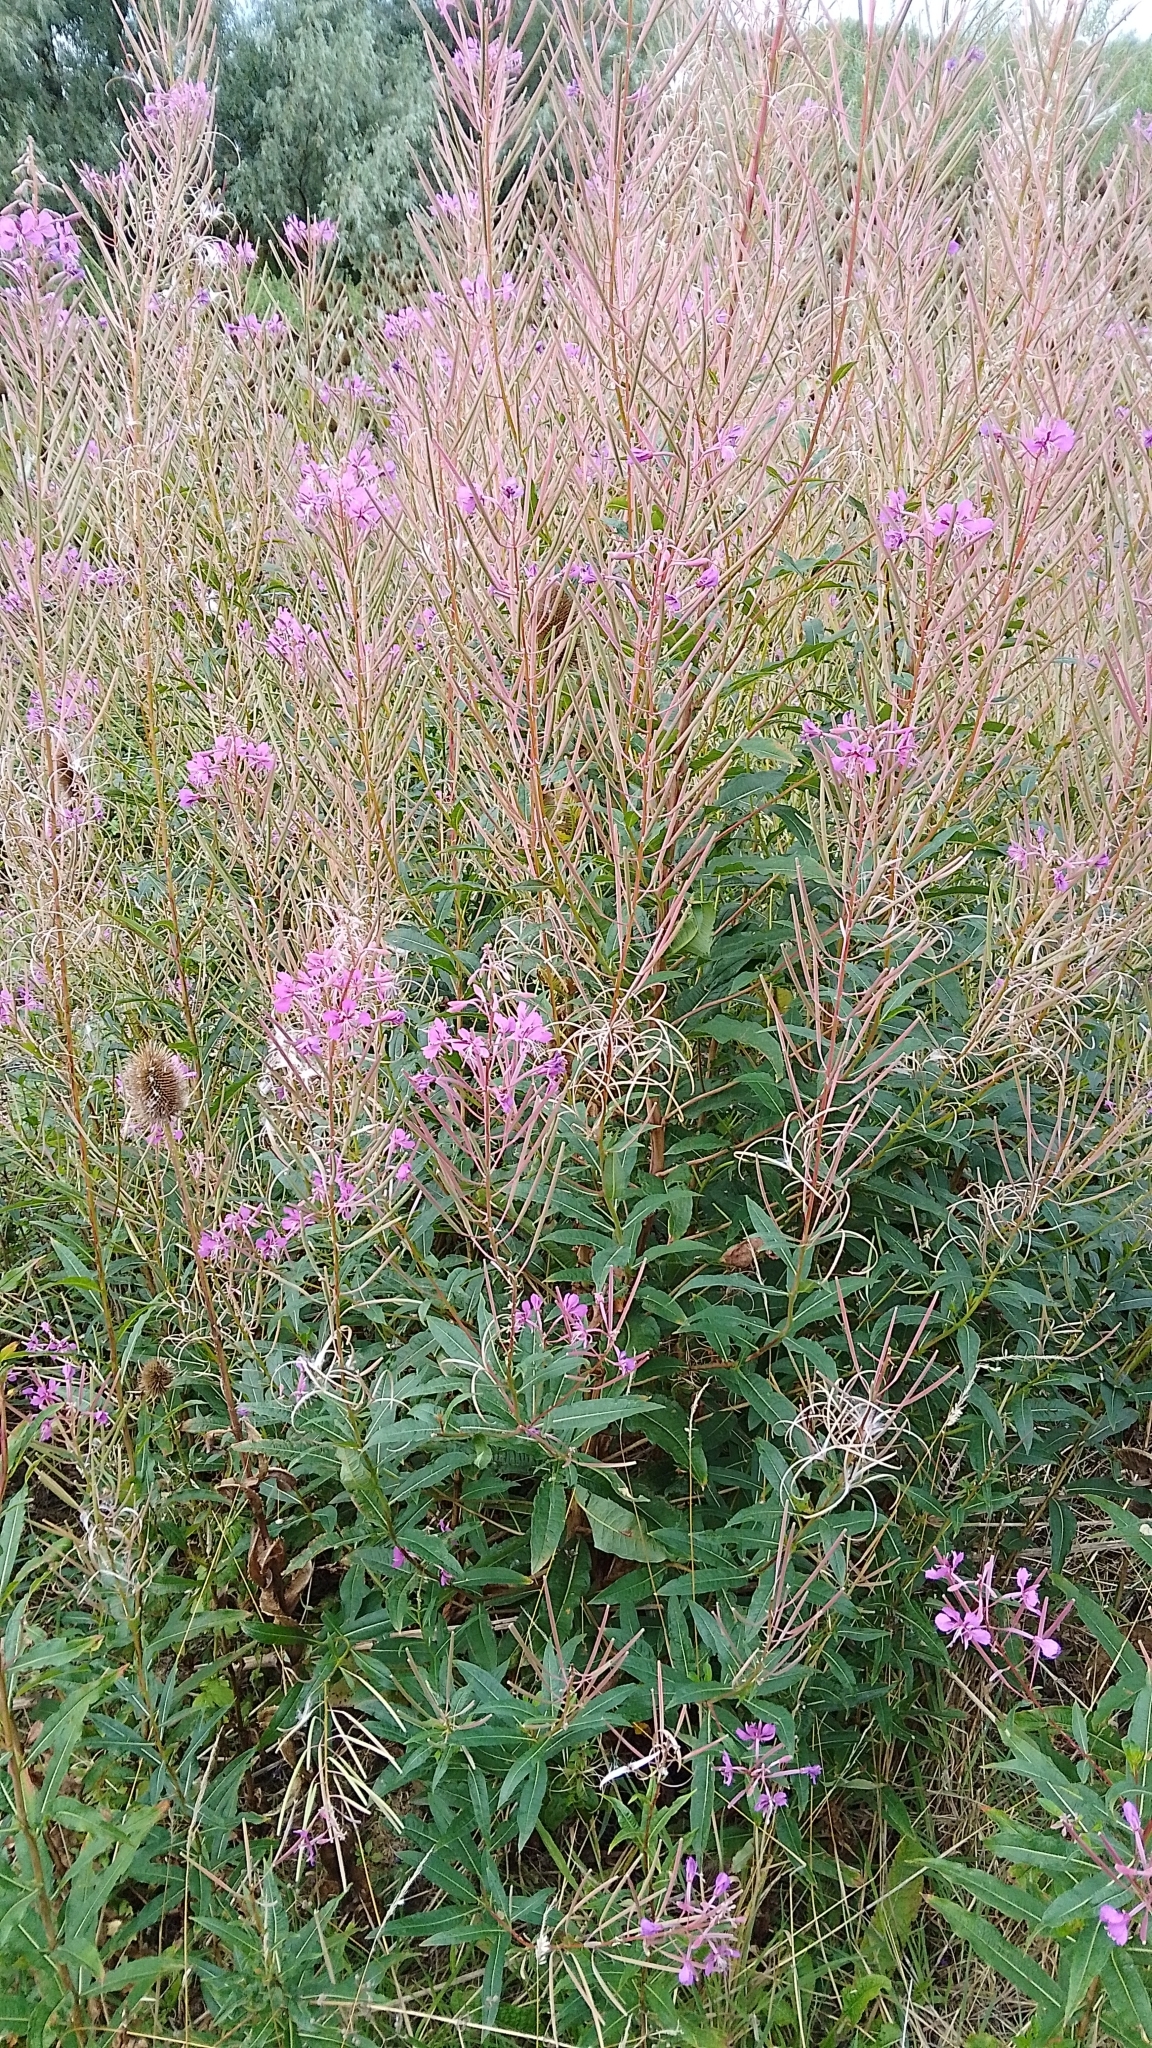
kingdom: Plantae
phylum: Tracheophyta
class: Magnoliopsida
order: Myrtales
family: Onagraceae
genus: Chamaenerion
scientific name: Chamaenerion angustifolium
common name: Fireweed
